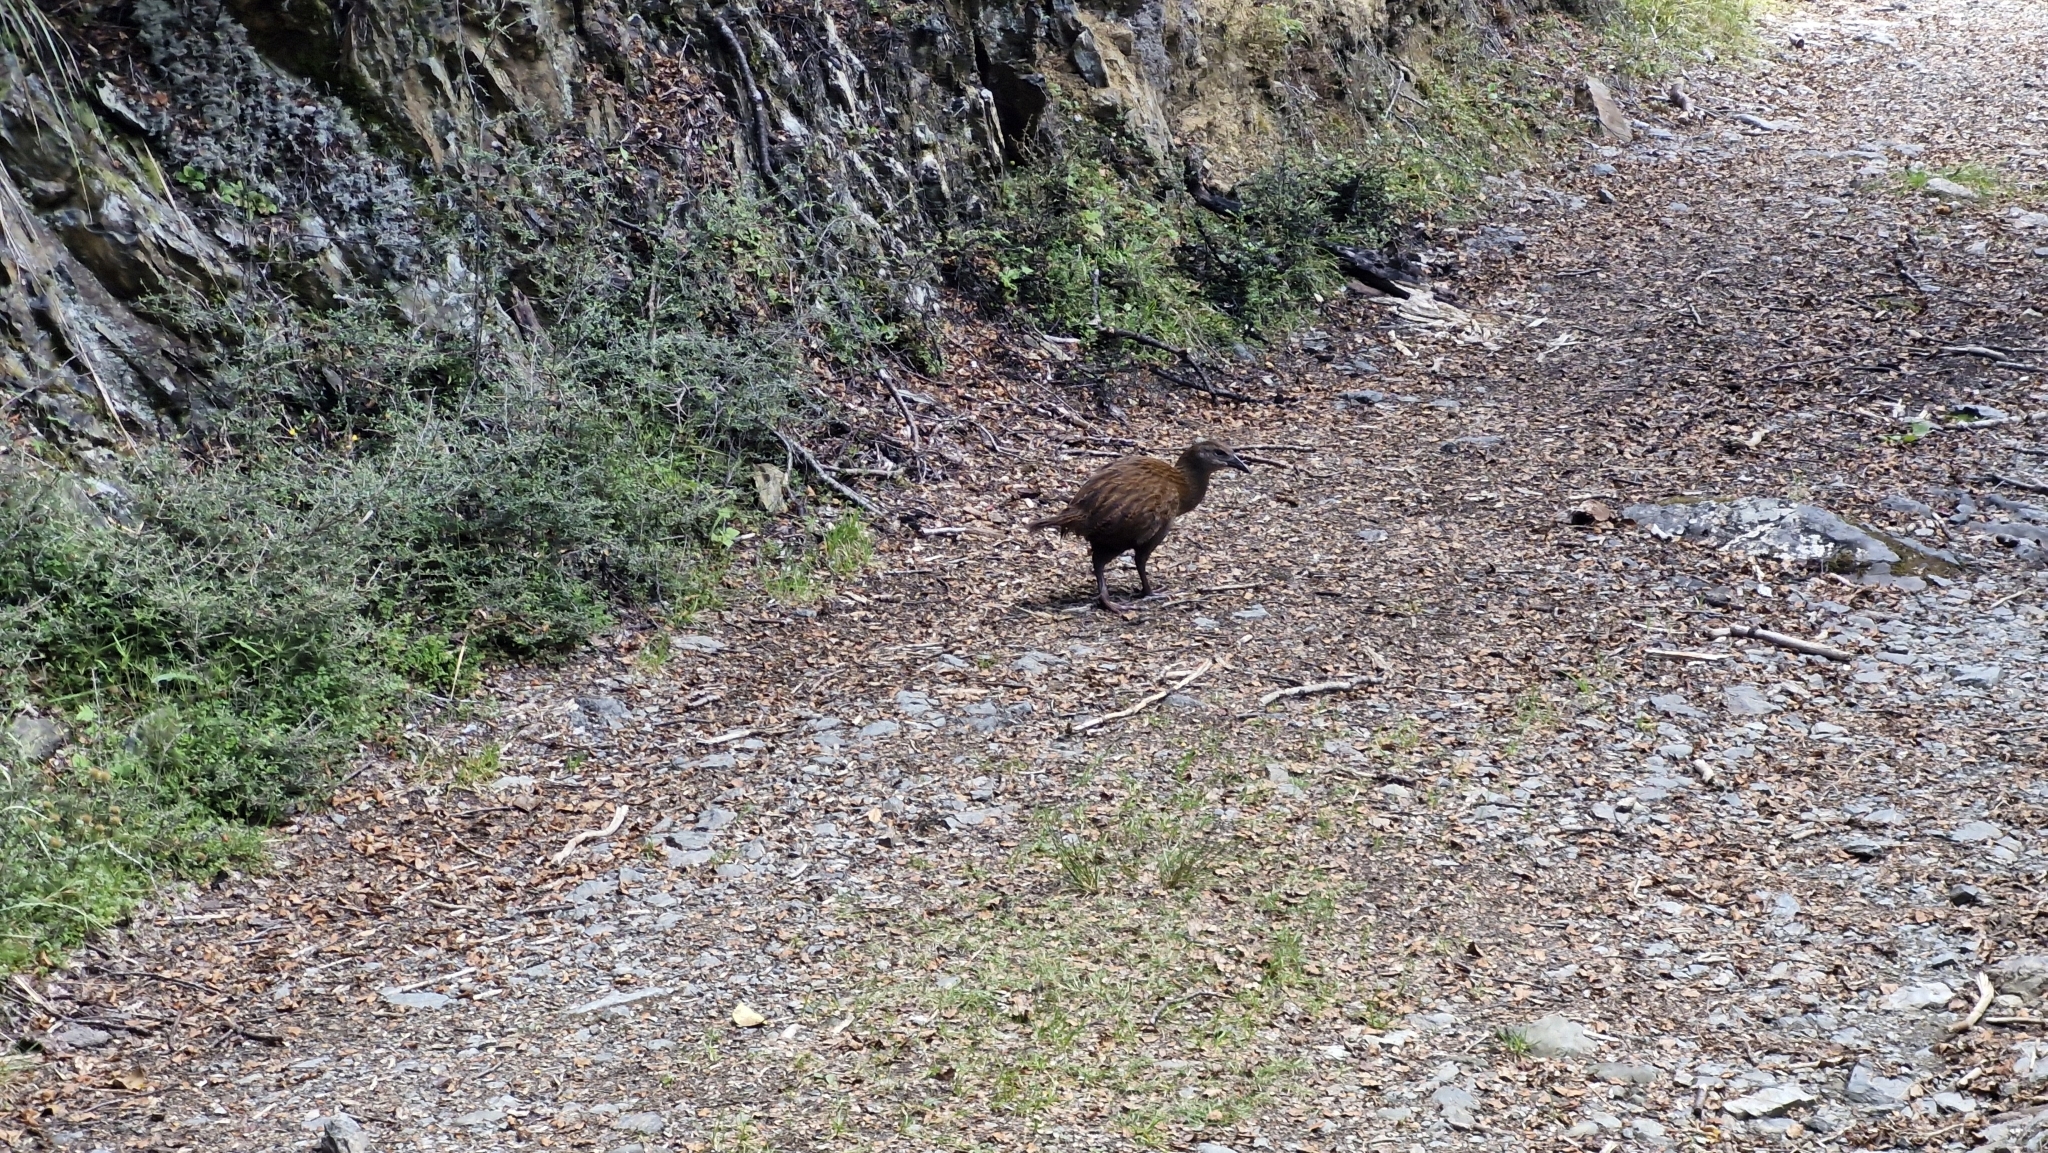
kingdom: Animalia
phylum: Chordata
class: Aves
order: Gruiformes
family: Rallidae
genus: Gallirallus
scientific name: Gallirallus australis
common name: Weka
